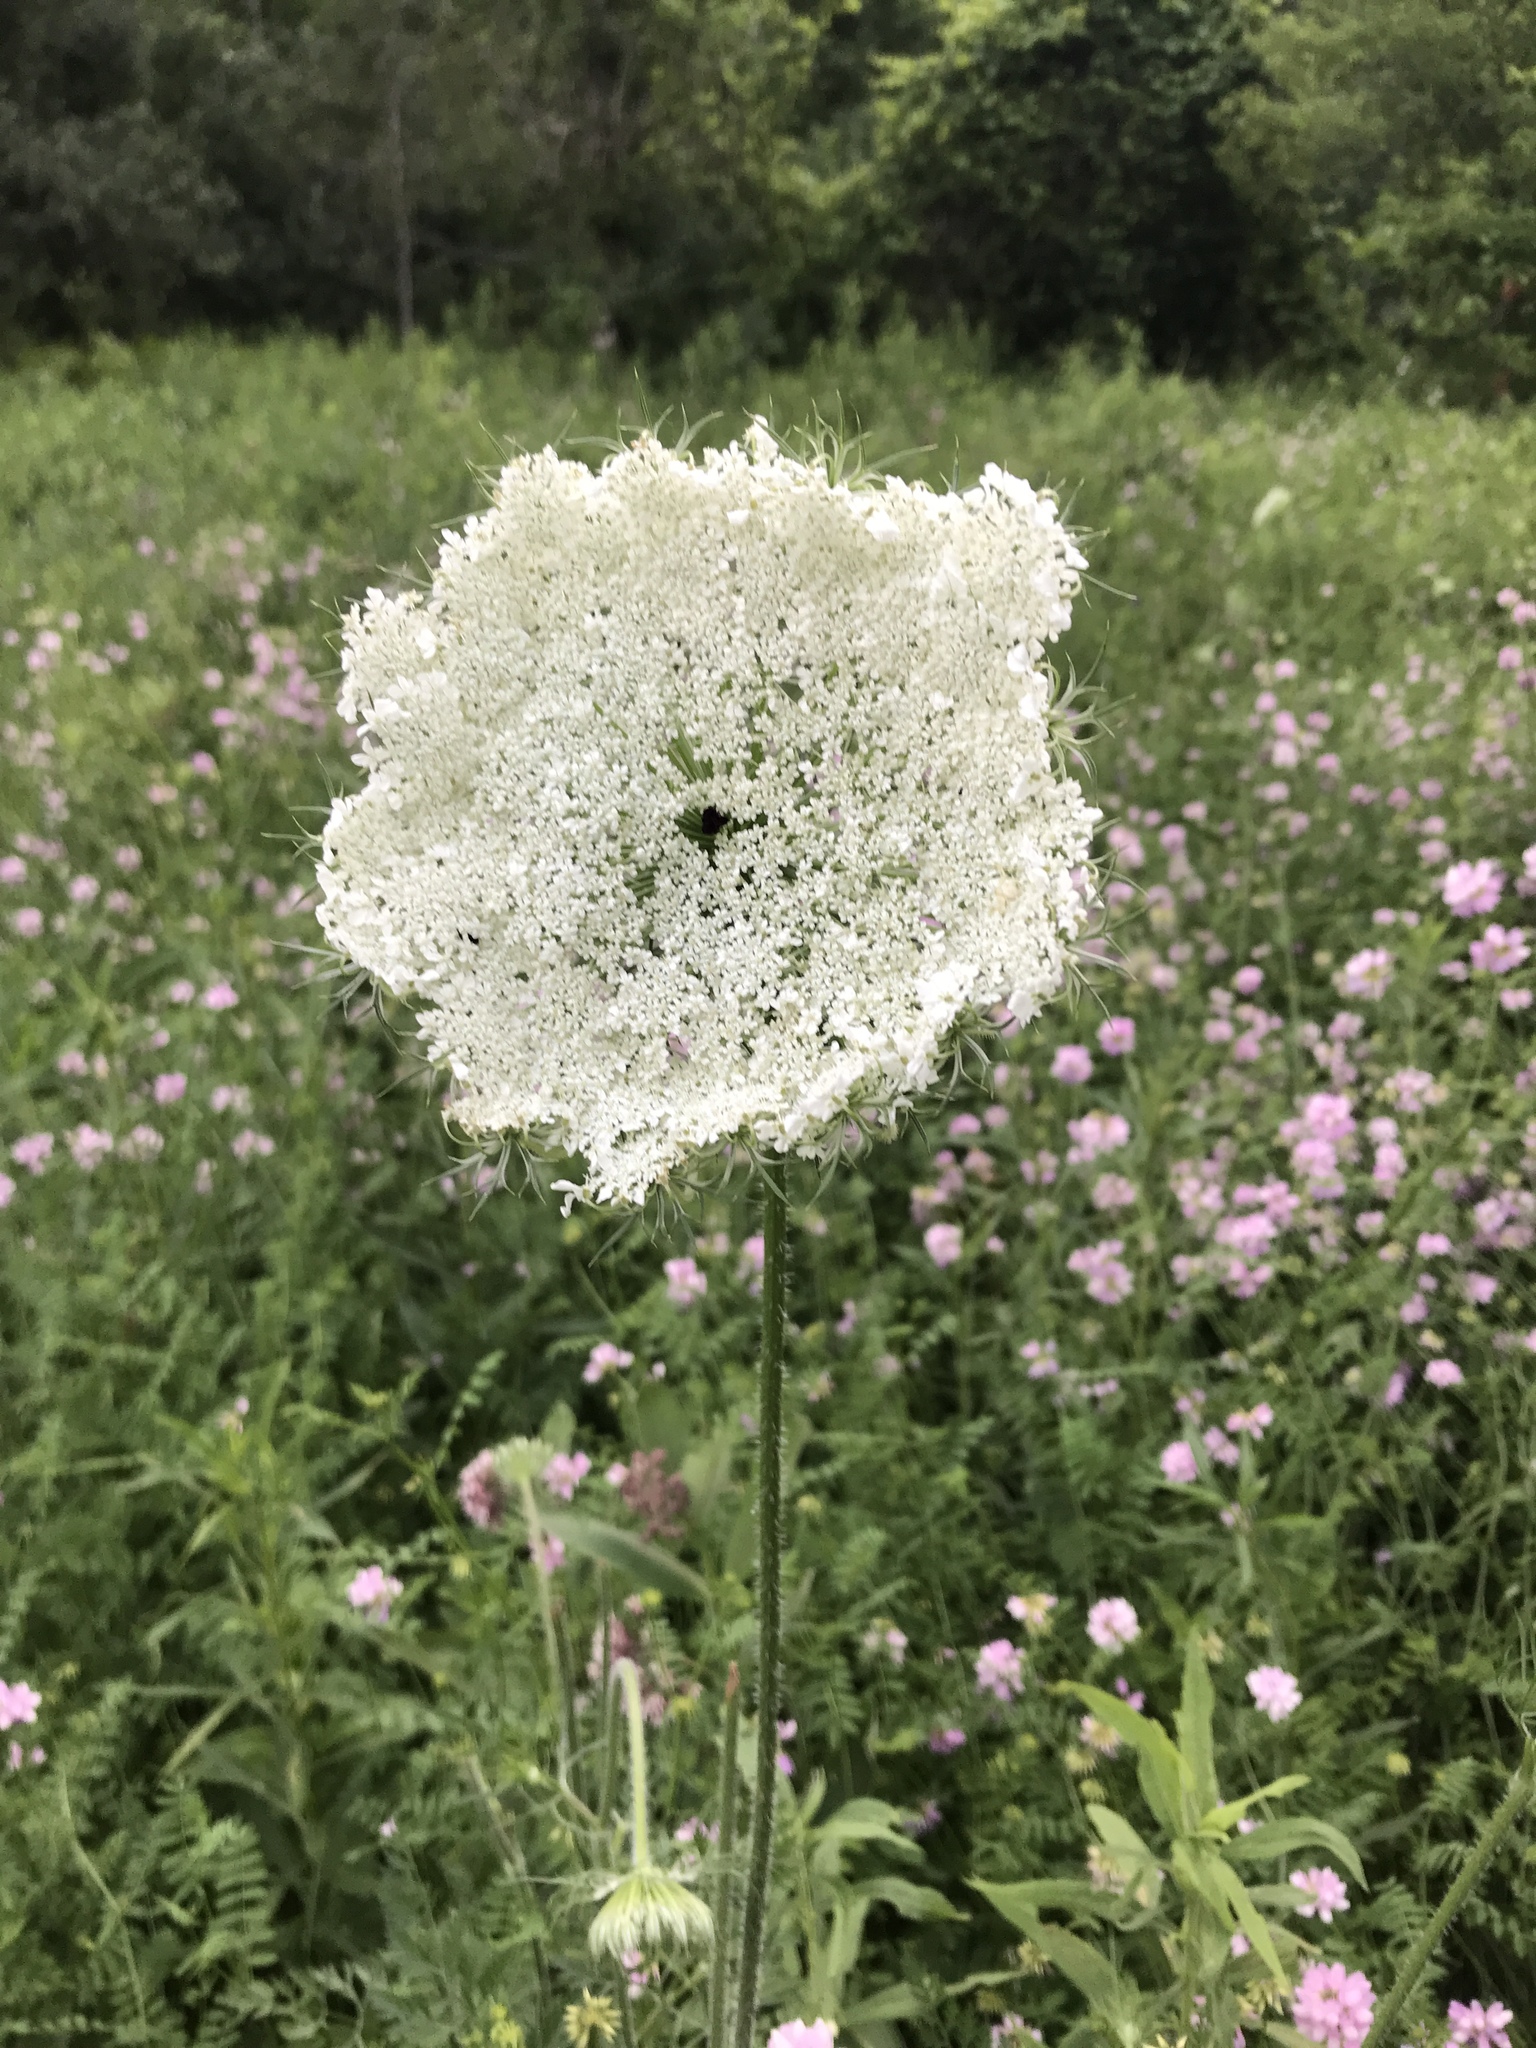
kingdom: Plantae
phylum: Tracheophyta
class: Magnoliopsida
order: Apiales
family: Apiaceae
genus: Daucus
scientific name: Daucus carota
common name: Wild carrot
